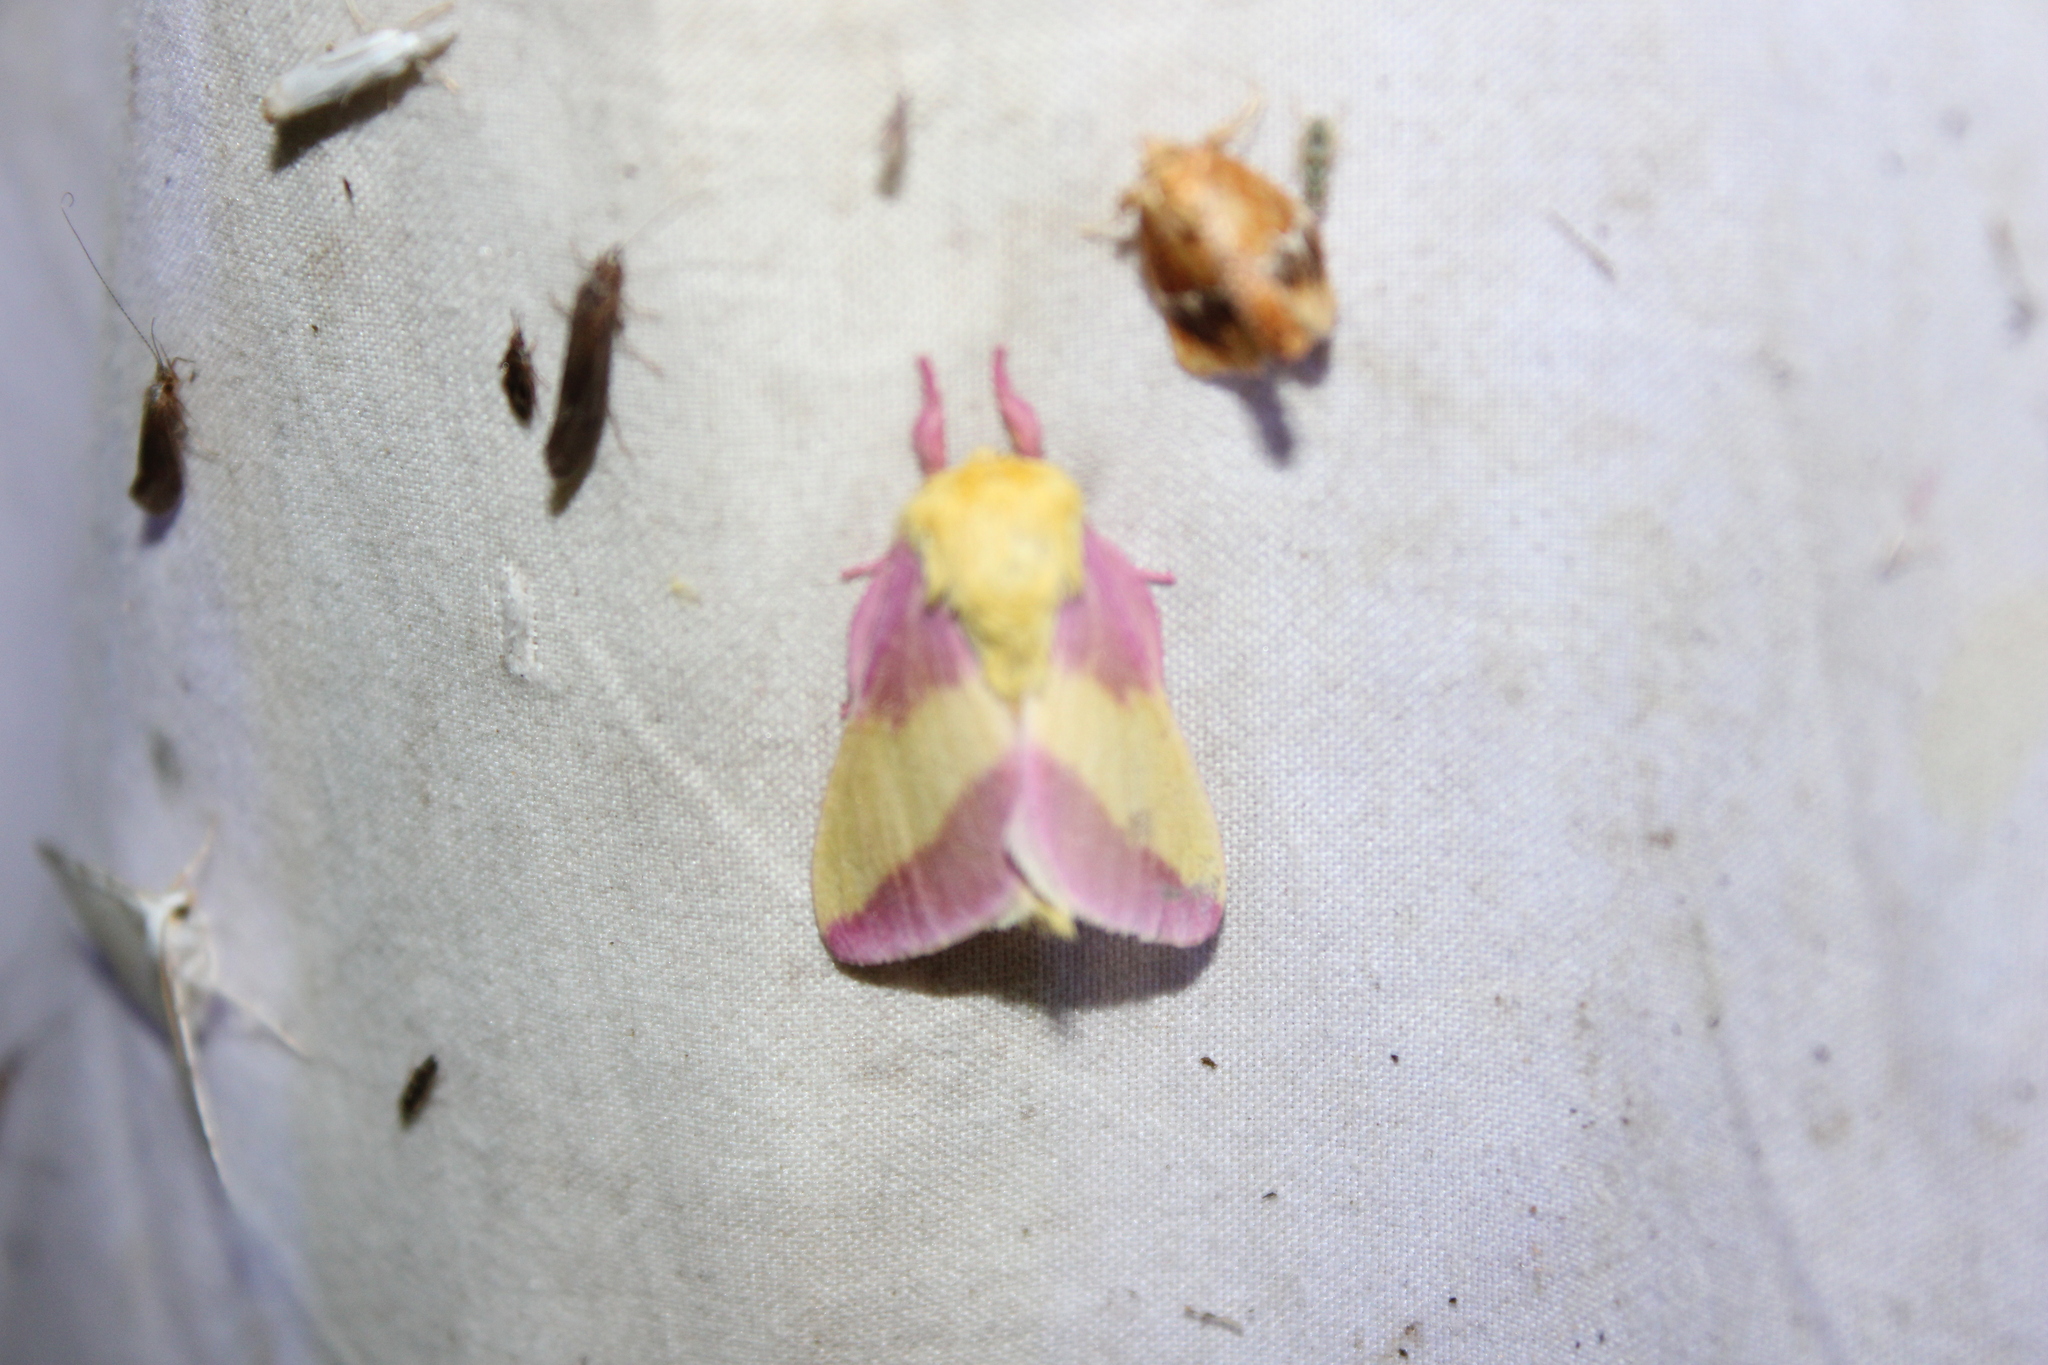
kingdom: Animalia
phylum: Arthropoda
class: Insecta
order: Lepidoptera
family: Saturniidae
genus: Dryocampa
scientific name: Dryocampa rubicunda
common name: Rosy maple moth
